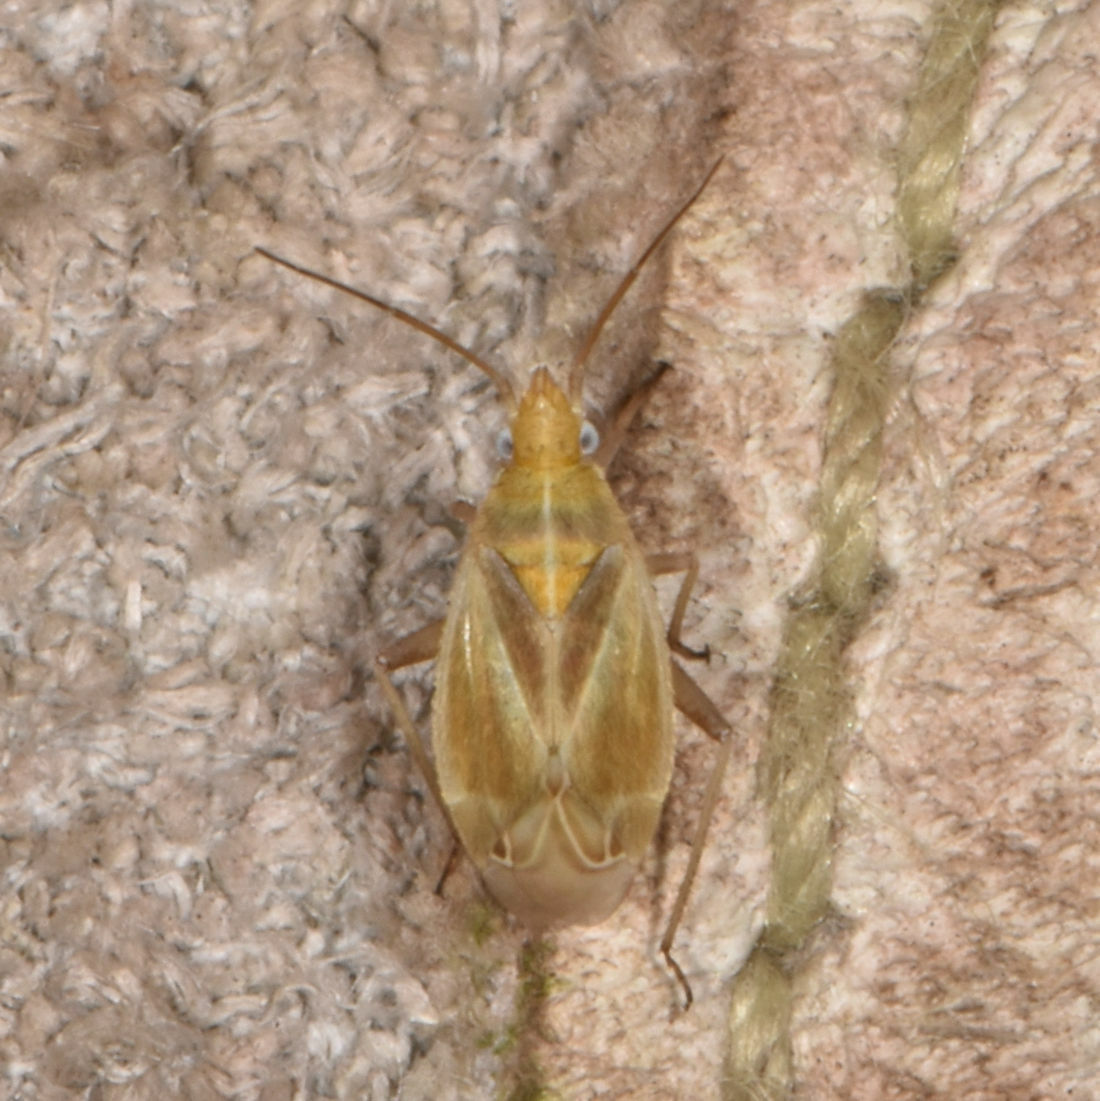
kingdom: Animalia
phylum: Arthropoda
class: Insecta
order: Hemiptera
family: Miridae
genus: Amblytylus
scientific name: Amblytylus nasutus
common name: Plant bug
